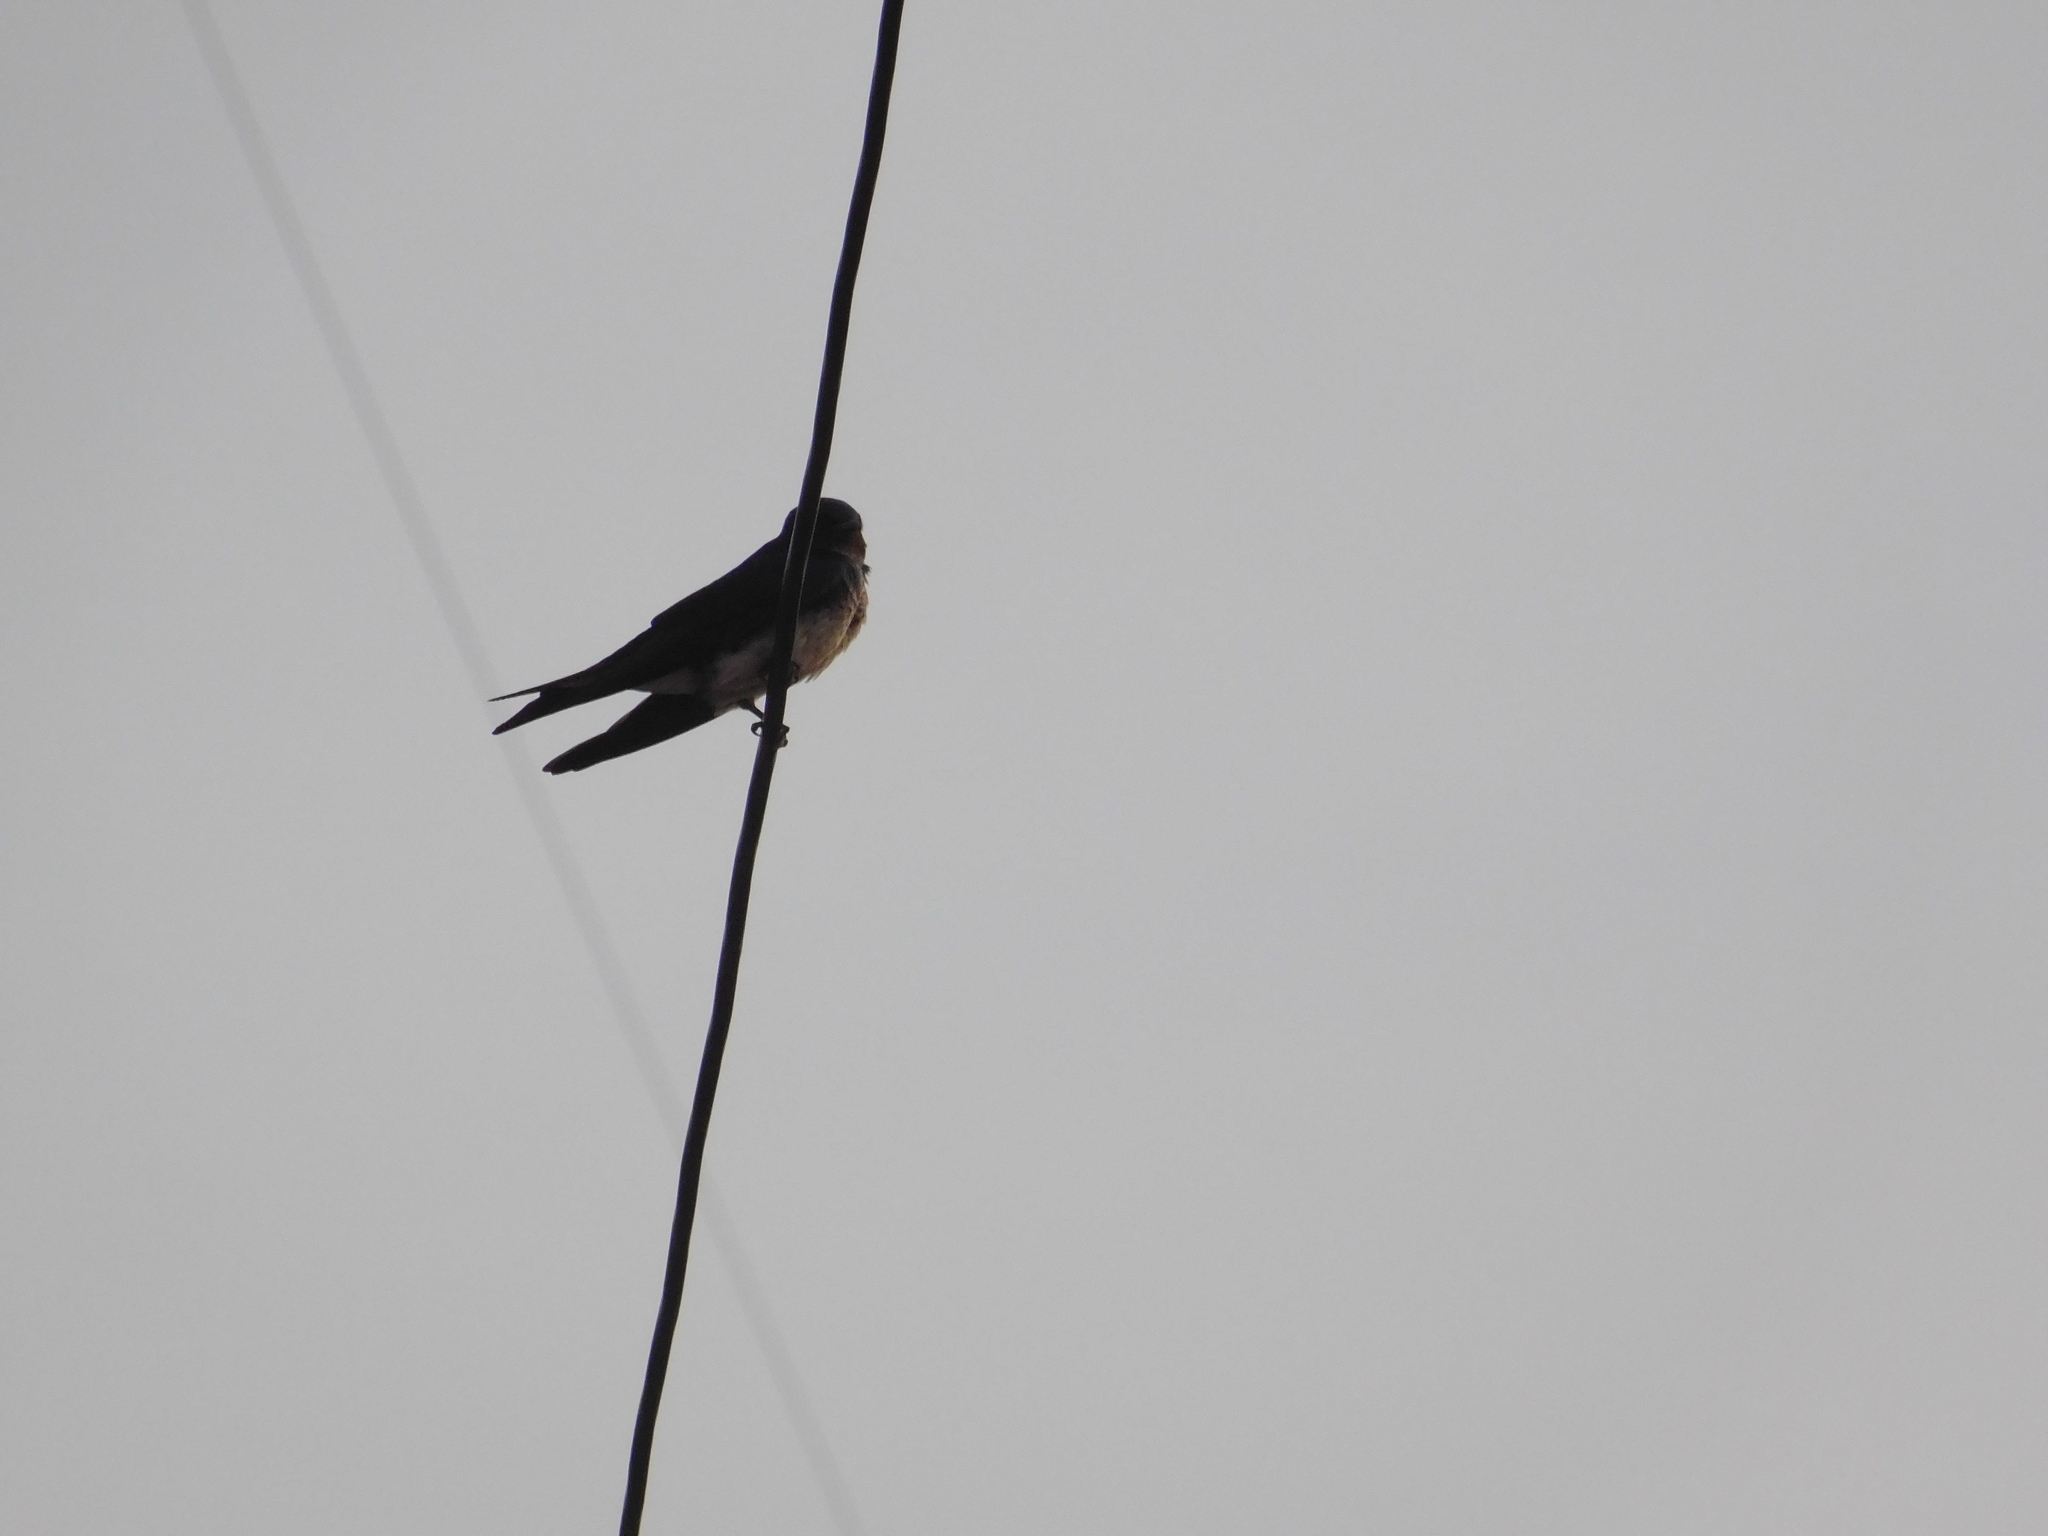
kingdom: Animalia
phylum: Chordata
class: Aves
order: Passeriformes
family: Hirundinidae
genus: Progne
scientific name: Progne chalybea
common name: Grey-breasted martin
